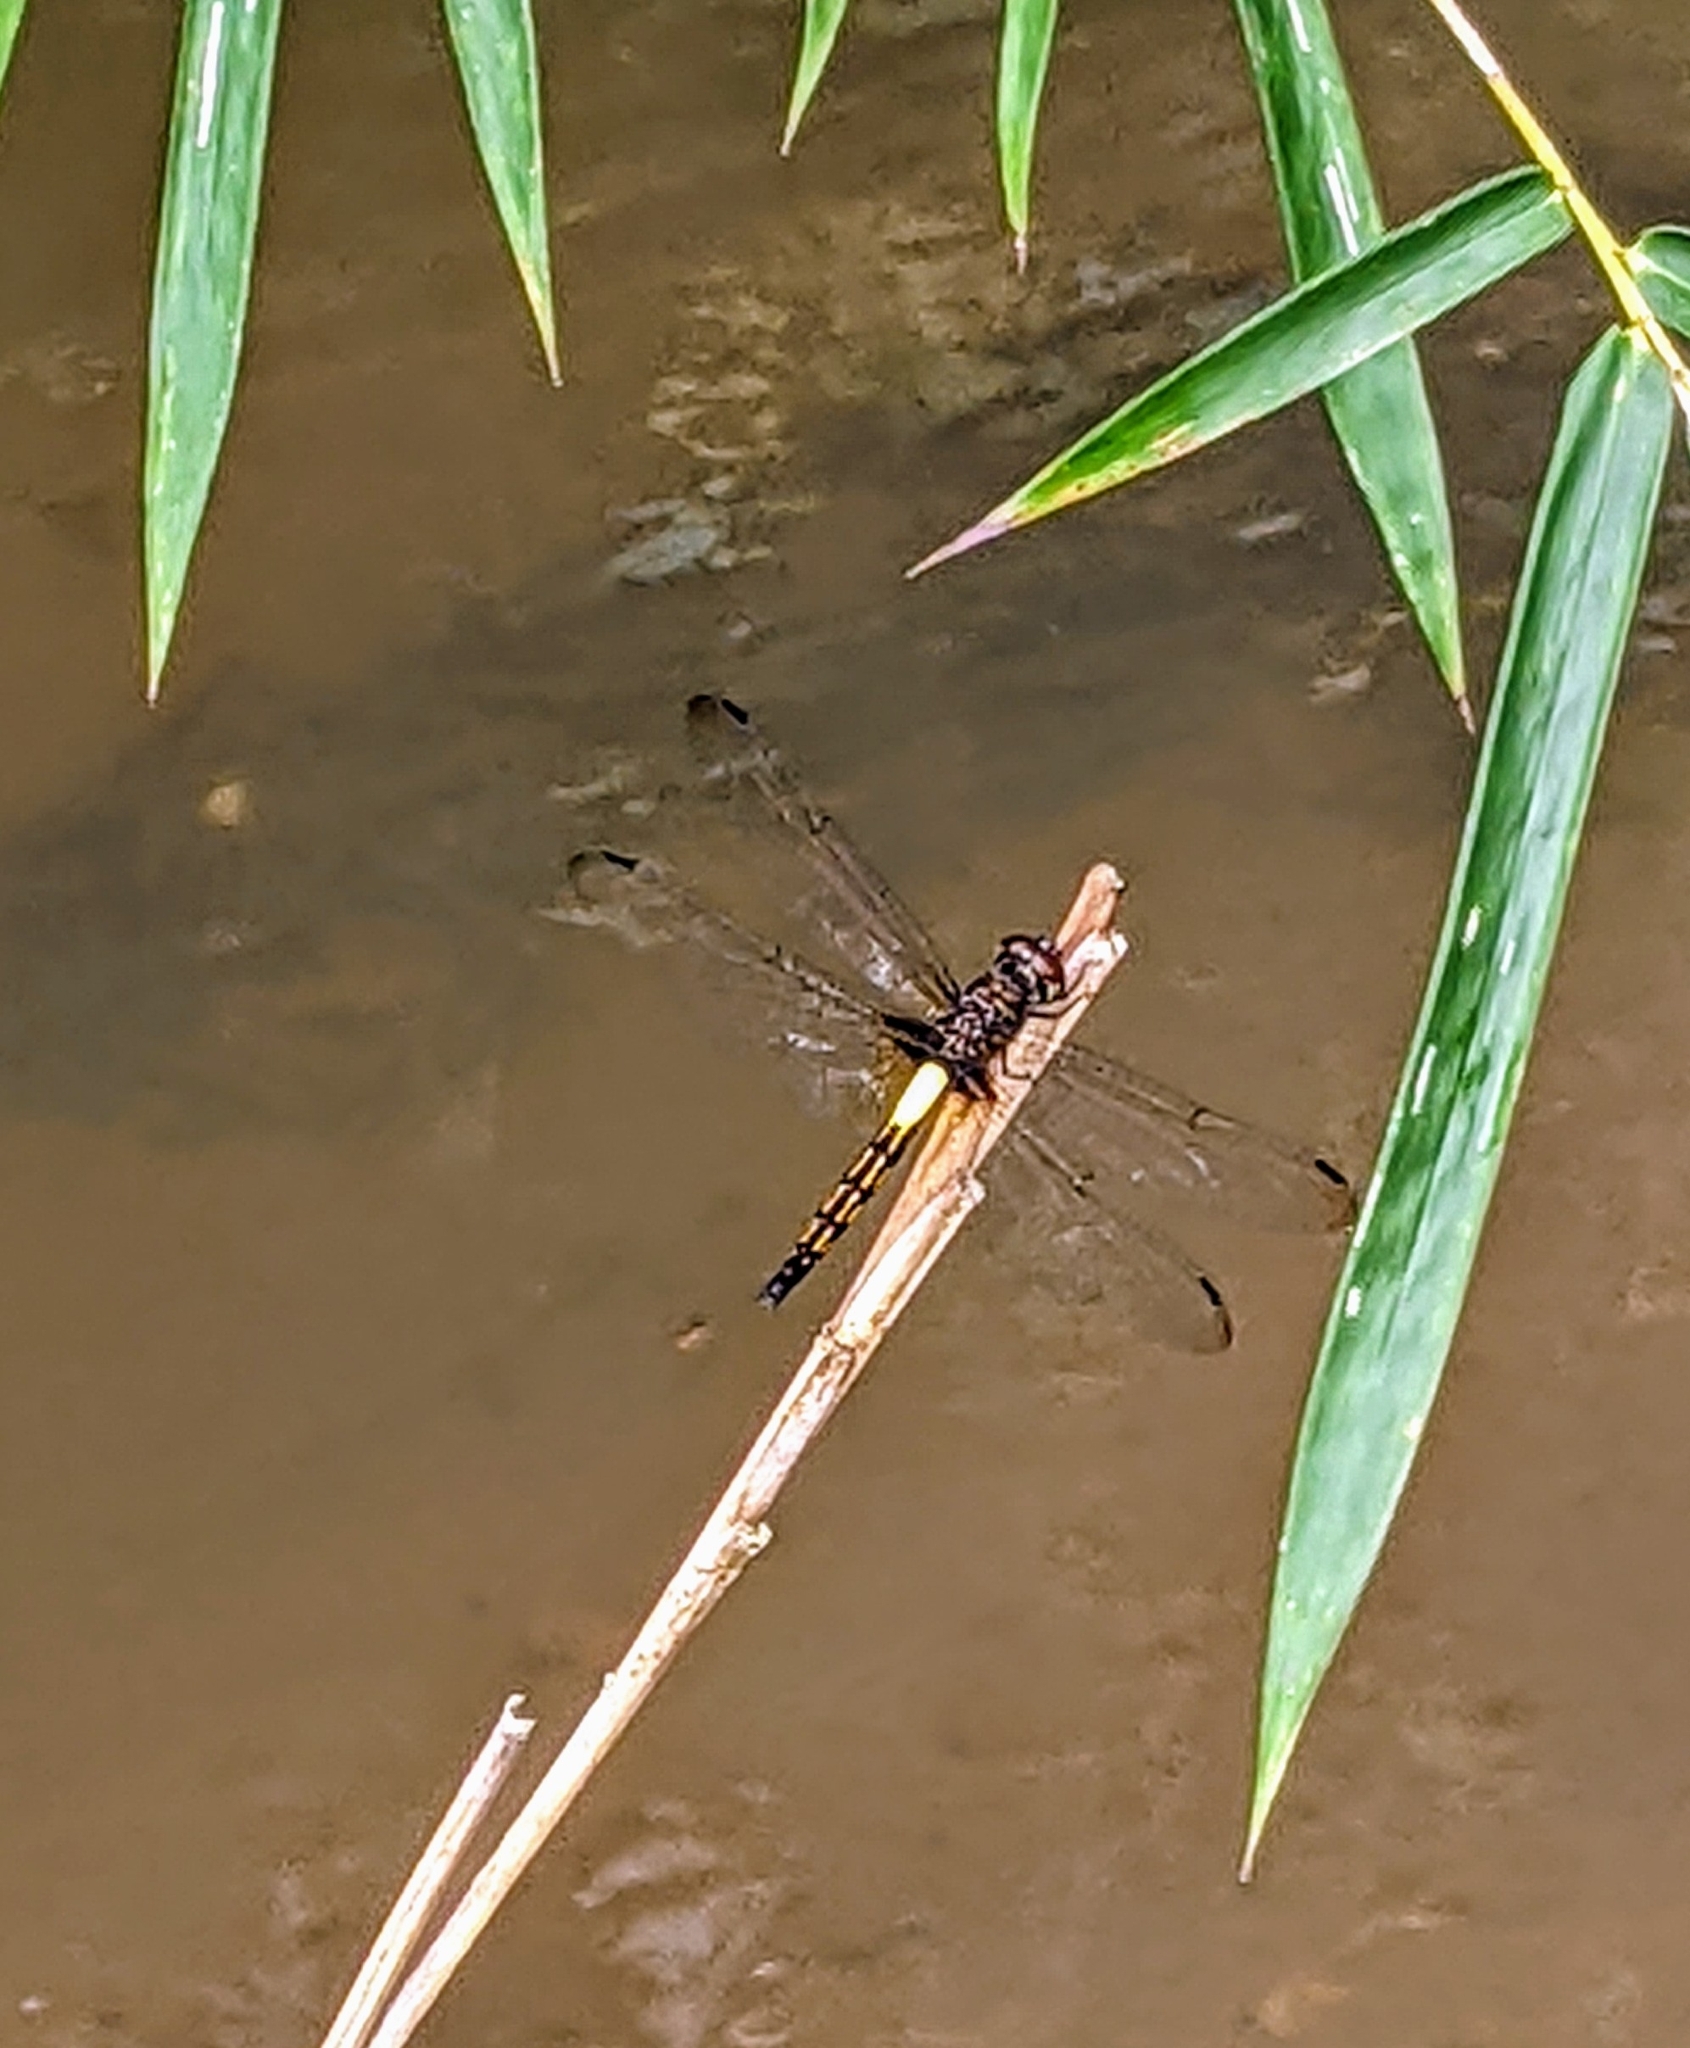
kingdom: Animalia
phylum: Arthropoda
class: Insecta
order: Odonata
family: Libellulidae
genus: Pseudothemis
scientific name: Pseudothemis jorina
